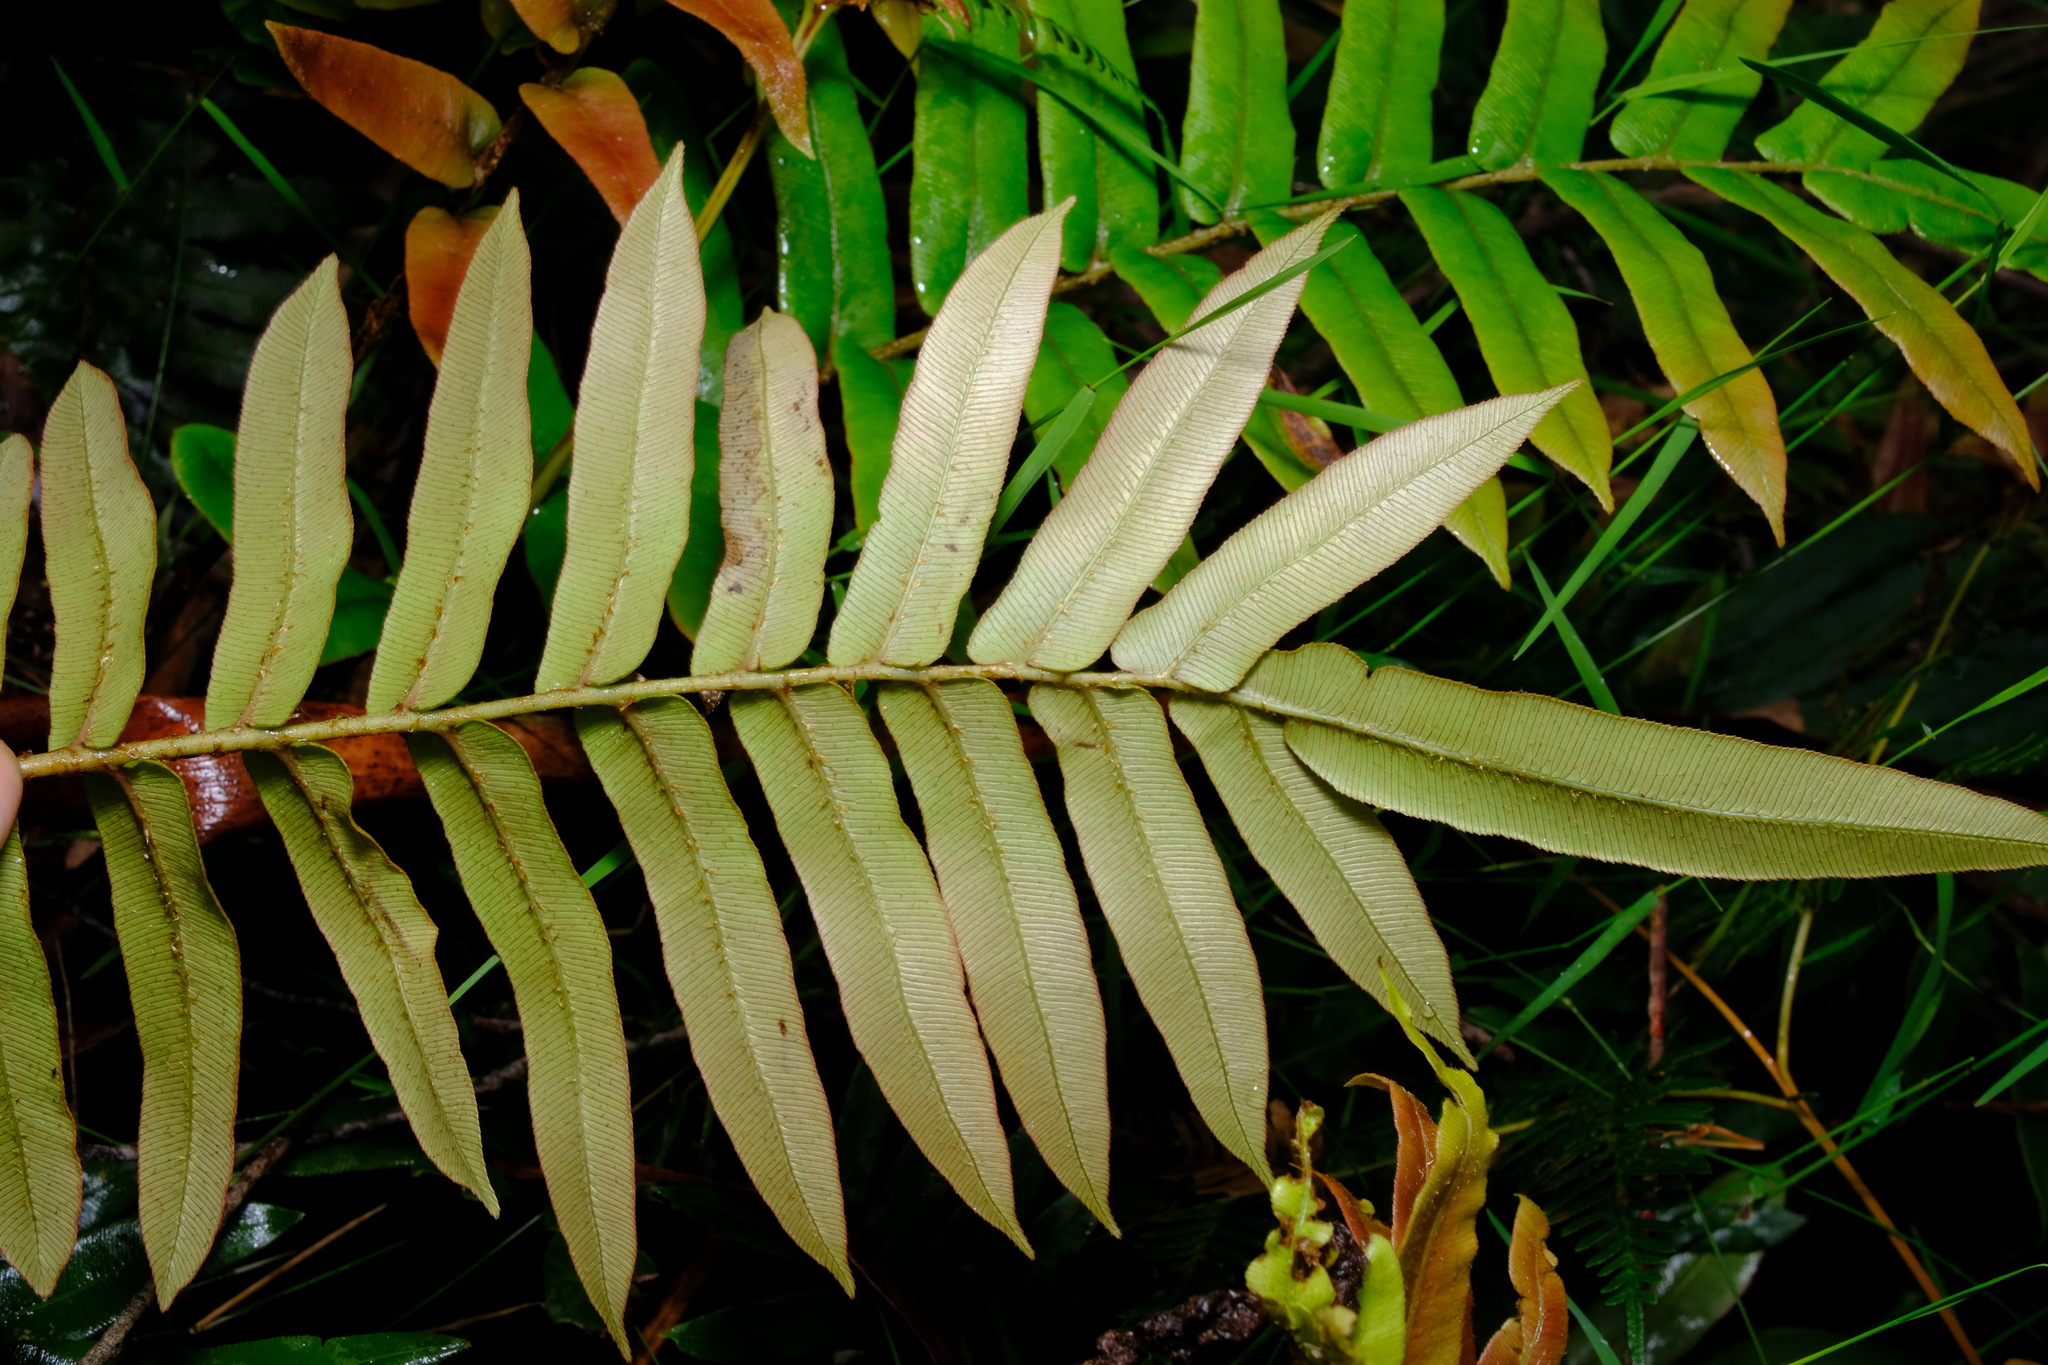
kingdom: Plantae
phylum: Tracheophyta
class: Polypodiopsida
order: Polypodiales
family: Blechnaceae
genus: Parablechnum
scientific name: Parablechnum wattsii
